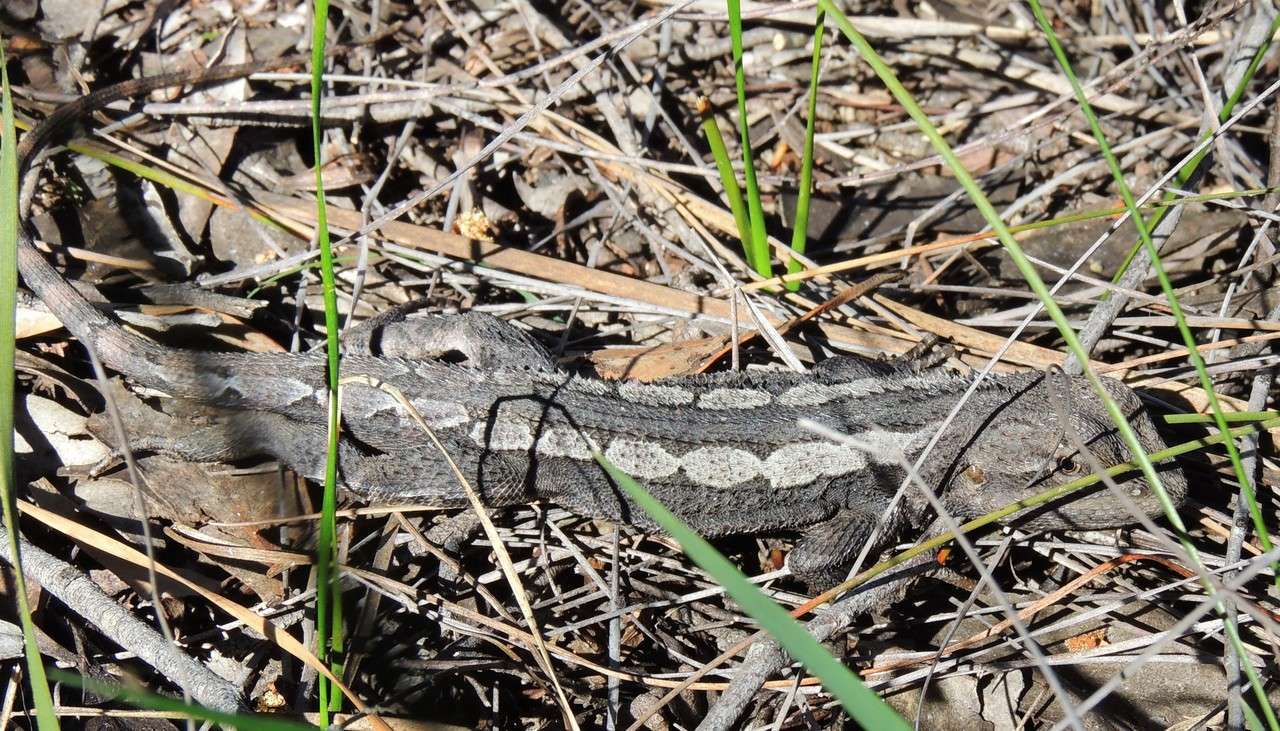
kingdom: Animalia
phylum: Chordata
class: Squamata
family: Agamidae
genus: Amphibolurus
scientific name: Amphibolurus muricatus
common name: Jacky lizard
